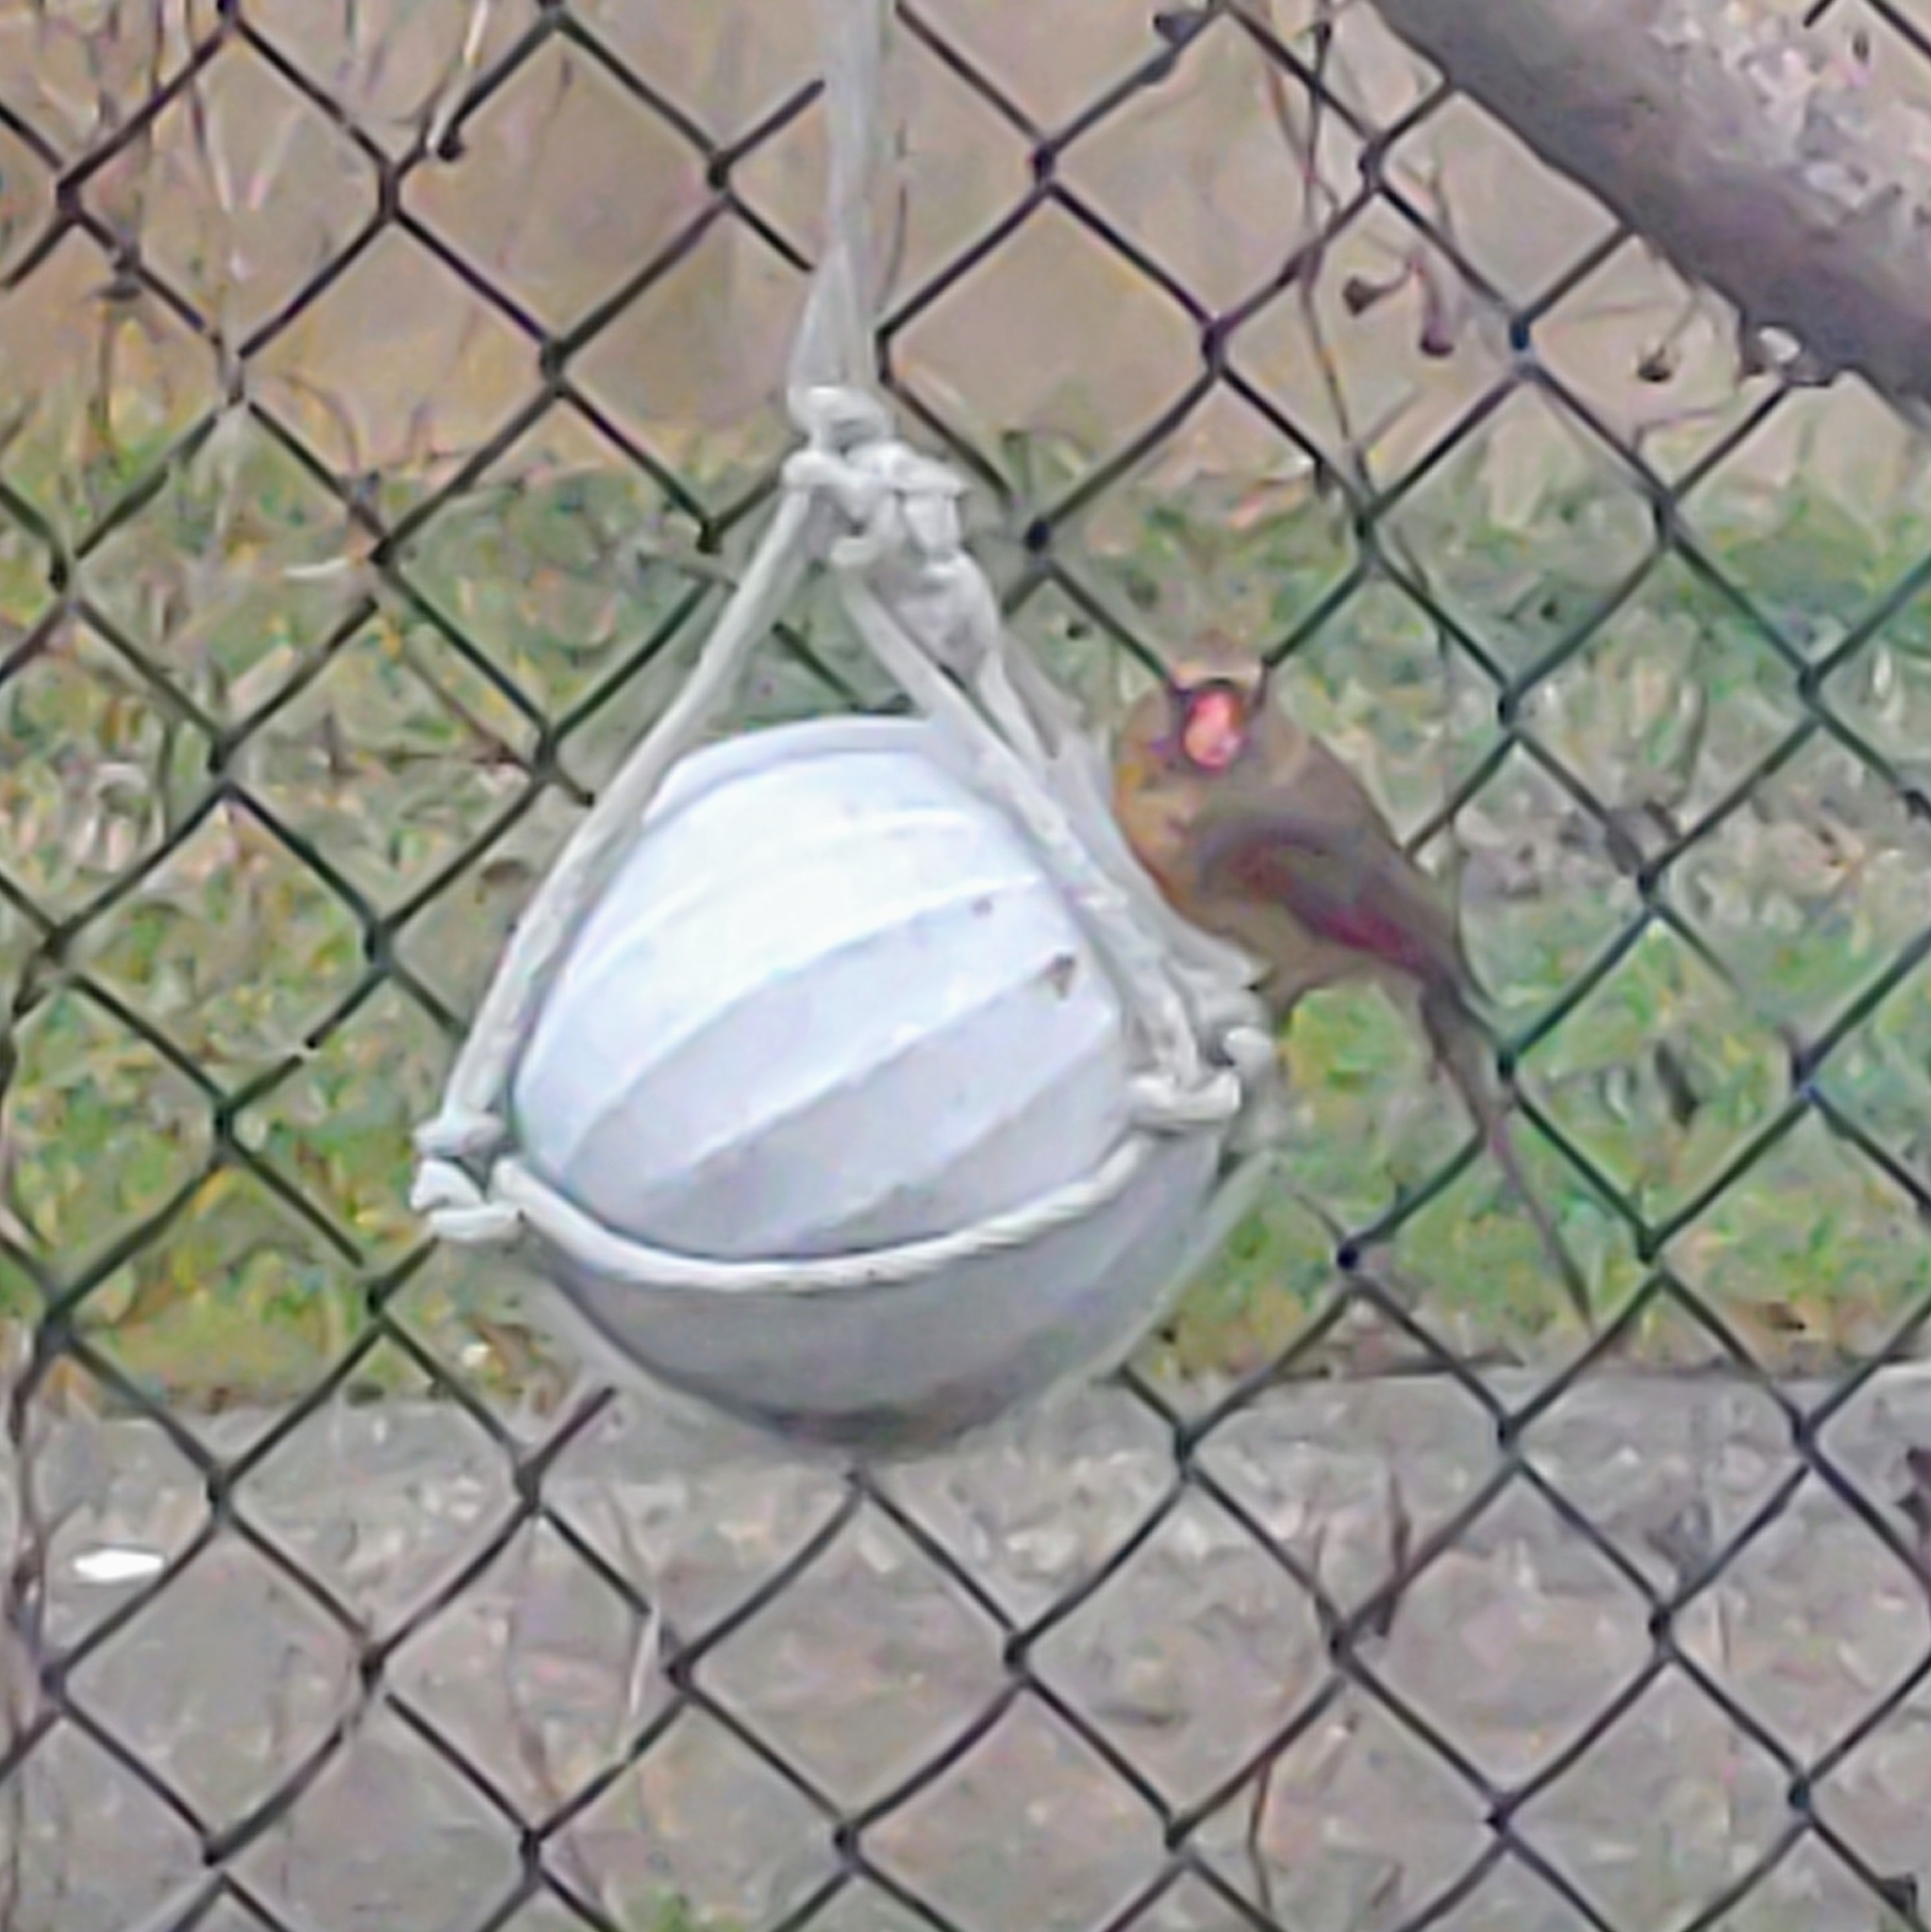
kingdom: Animalia
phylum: Chordata
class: Aves
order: Passeriformes
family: Cardinalidae
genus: Cardinalis
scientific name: Cardinalis cardinalis
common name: Northern cardinal
